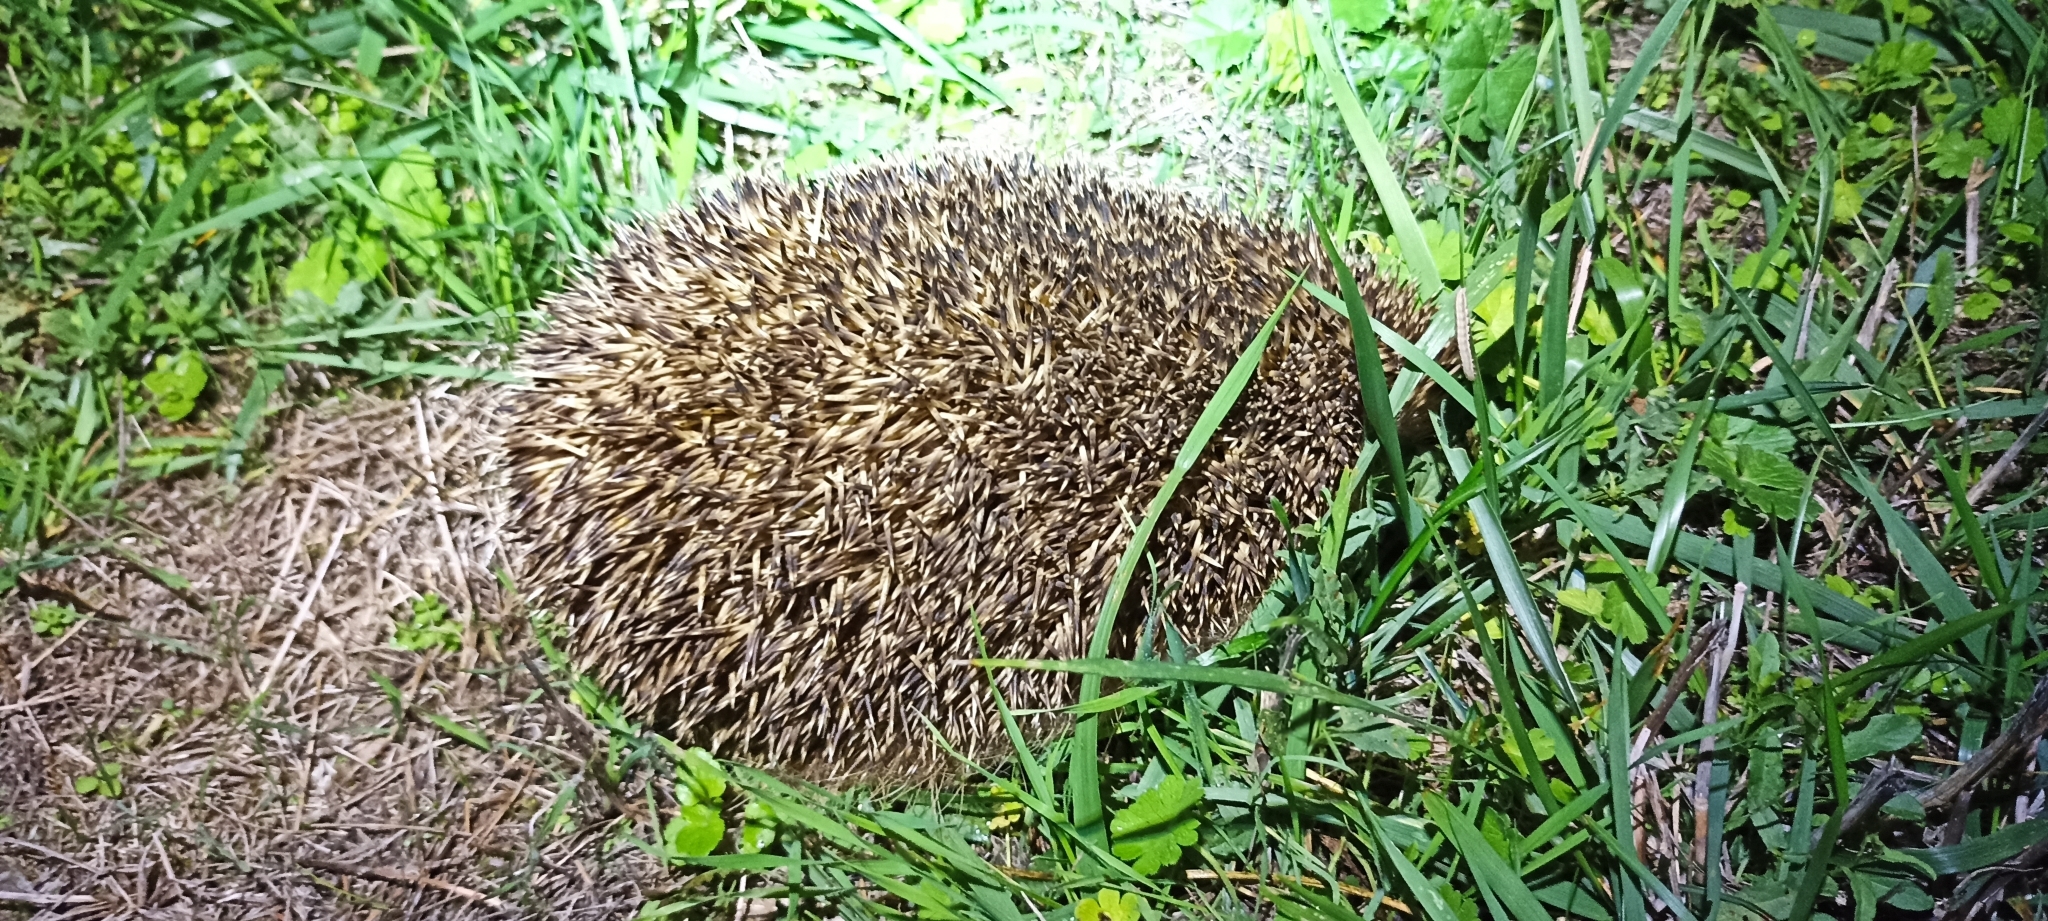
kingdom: Animalia
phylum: Chordata
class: Mammalia
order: Erinaceomorpha
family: Erinaceidae
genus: Erinaceus
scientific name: Erinaceus europaeus
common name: West european hedgehog
